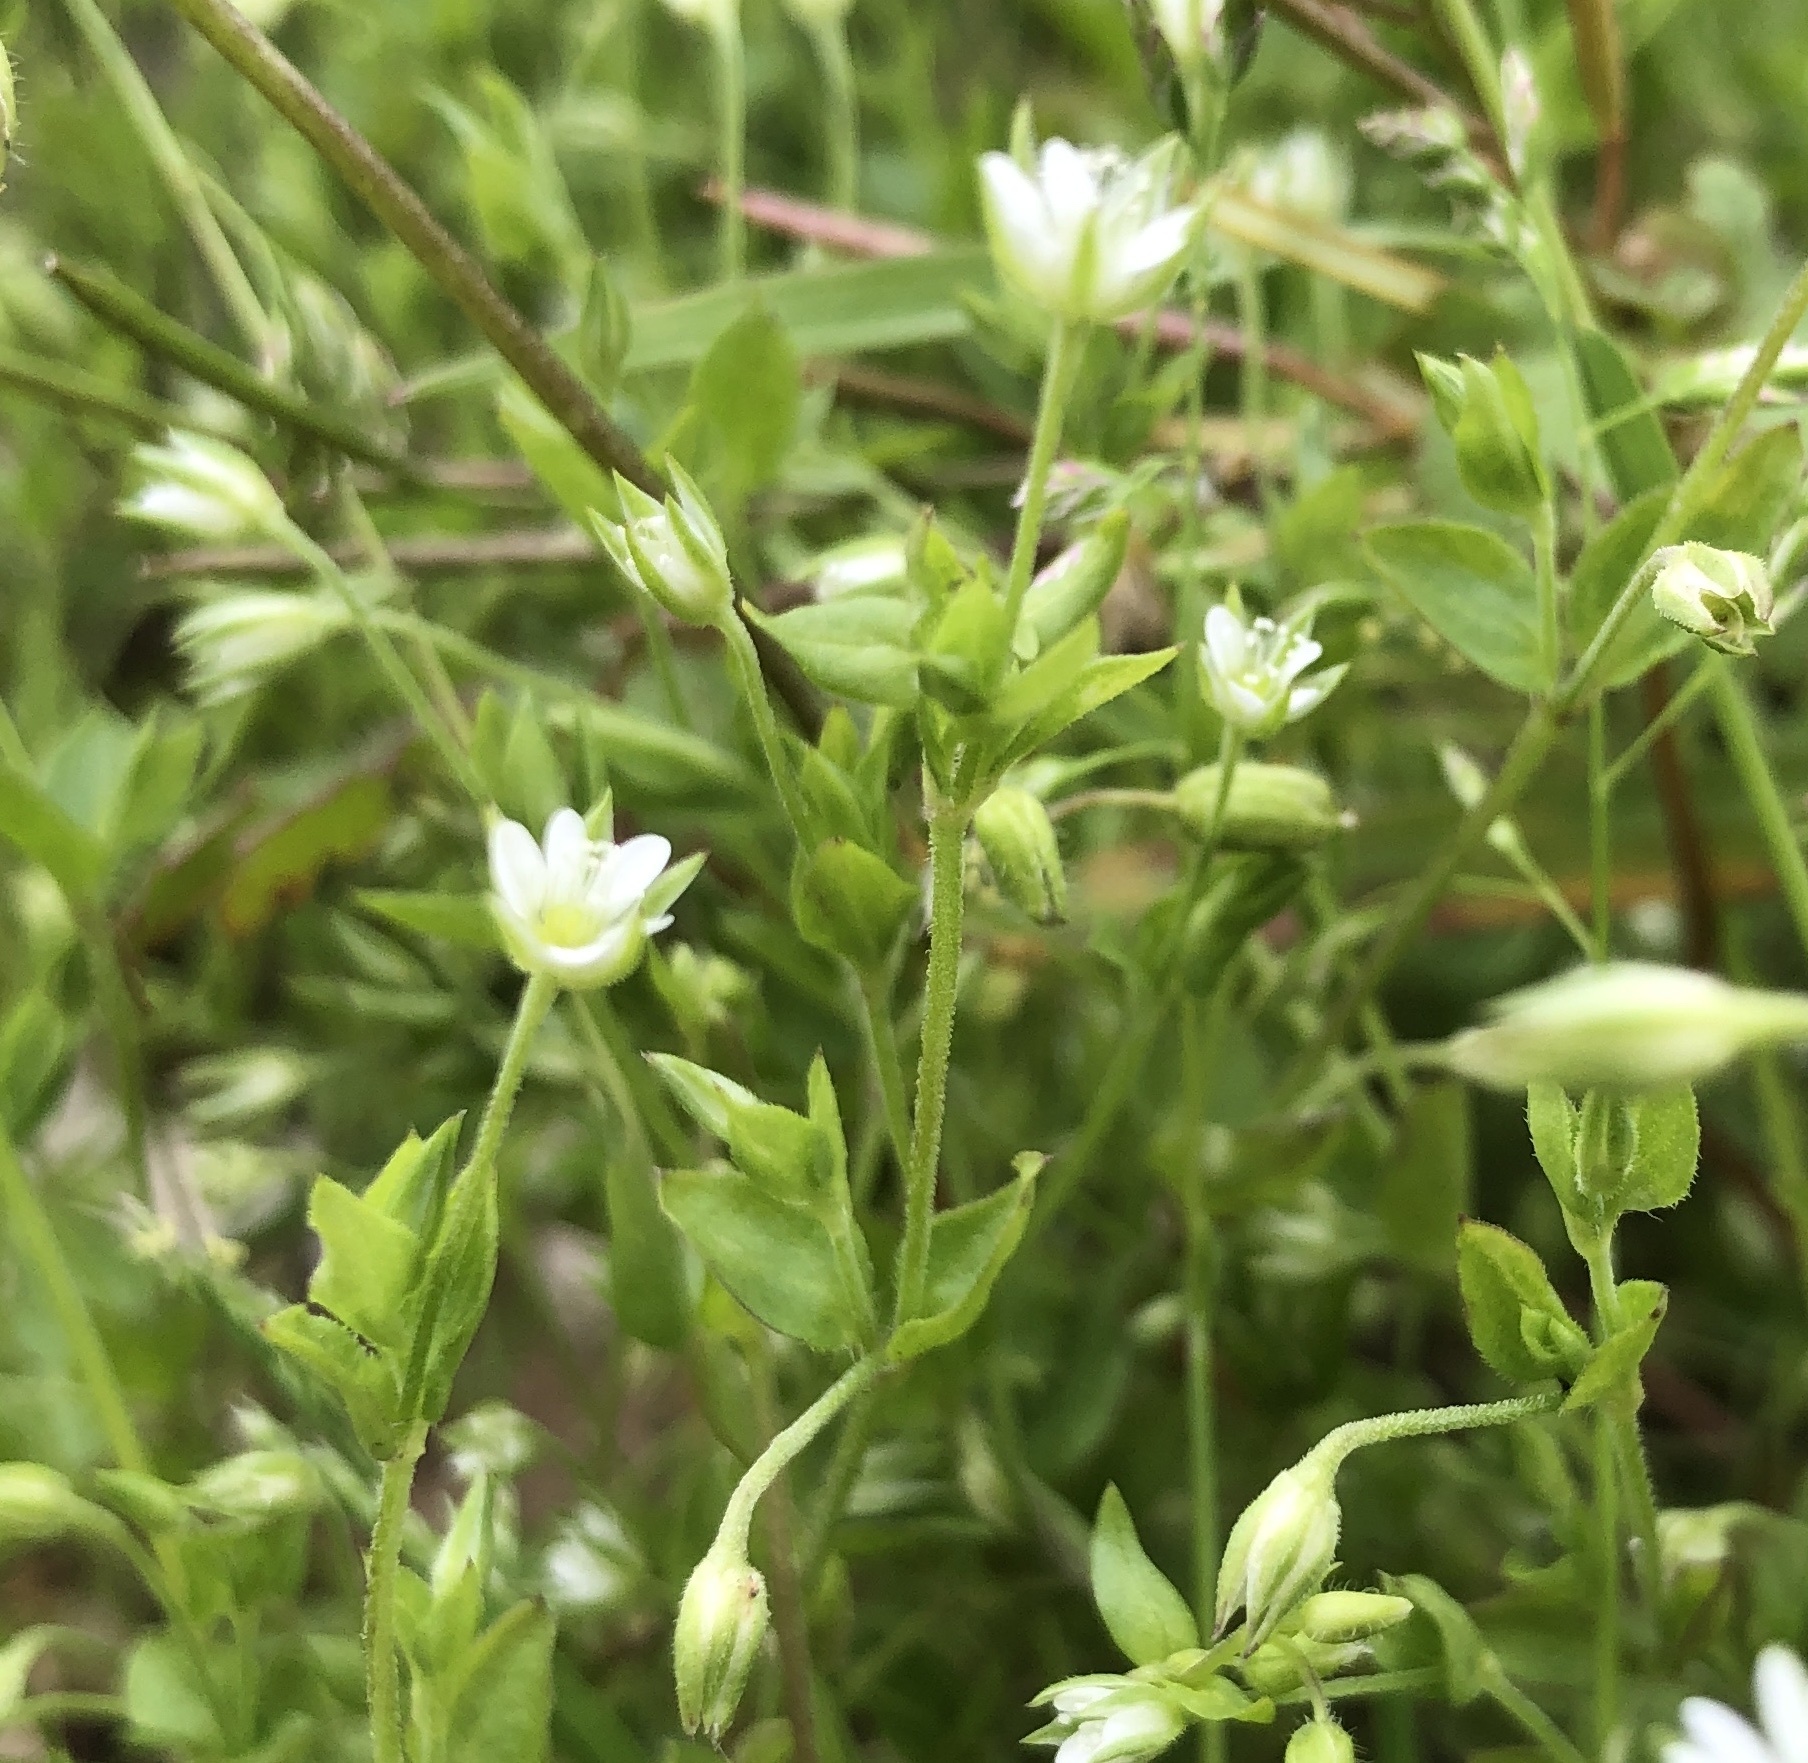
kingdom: Plantae
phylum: Tracheophyta
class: Magnoliopsida
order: Caryophyllales
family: Caryophyllaceae
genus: Moehringia
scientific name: Moehringia trinervia
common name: Three-nerved sandwort
